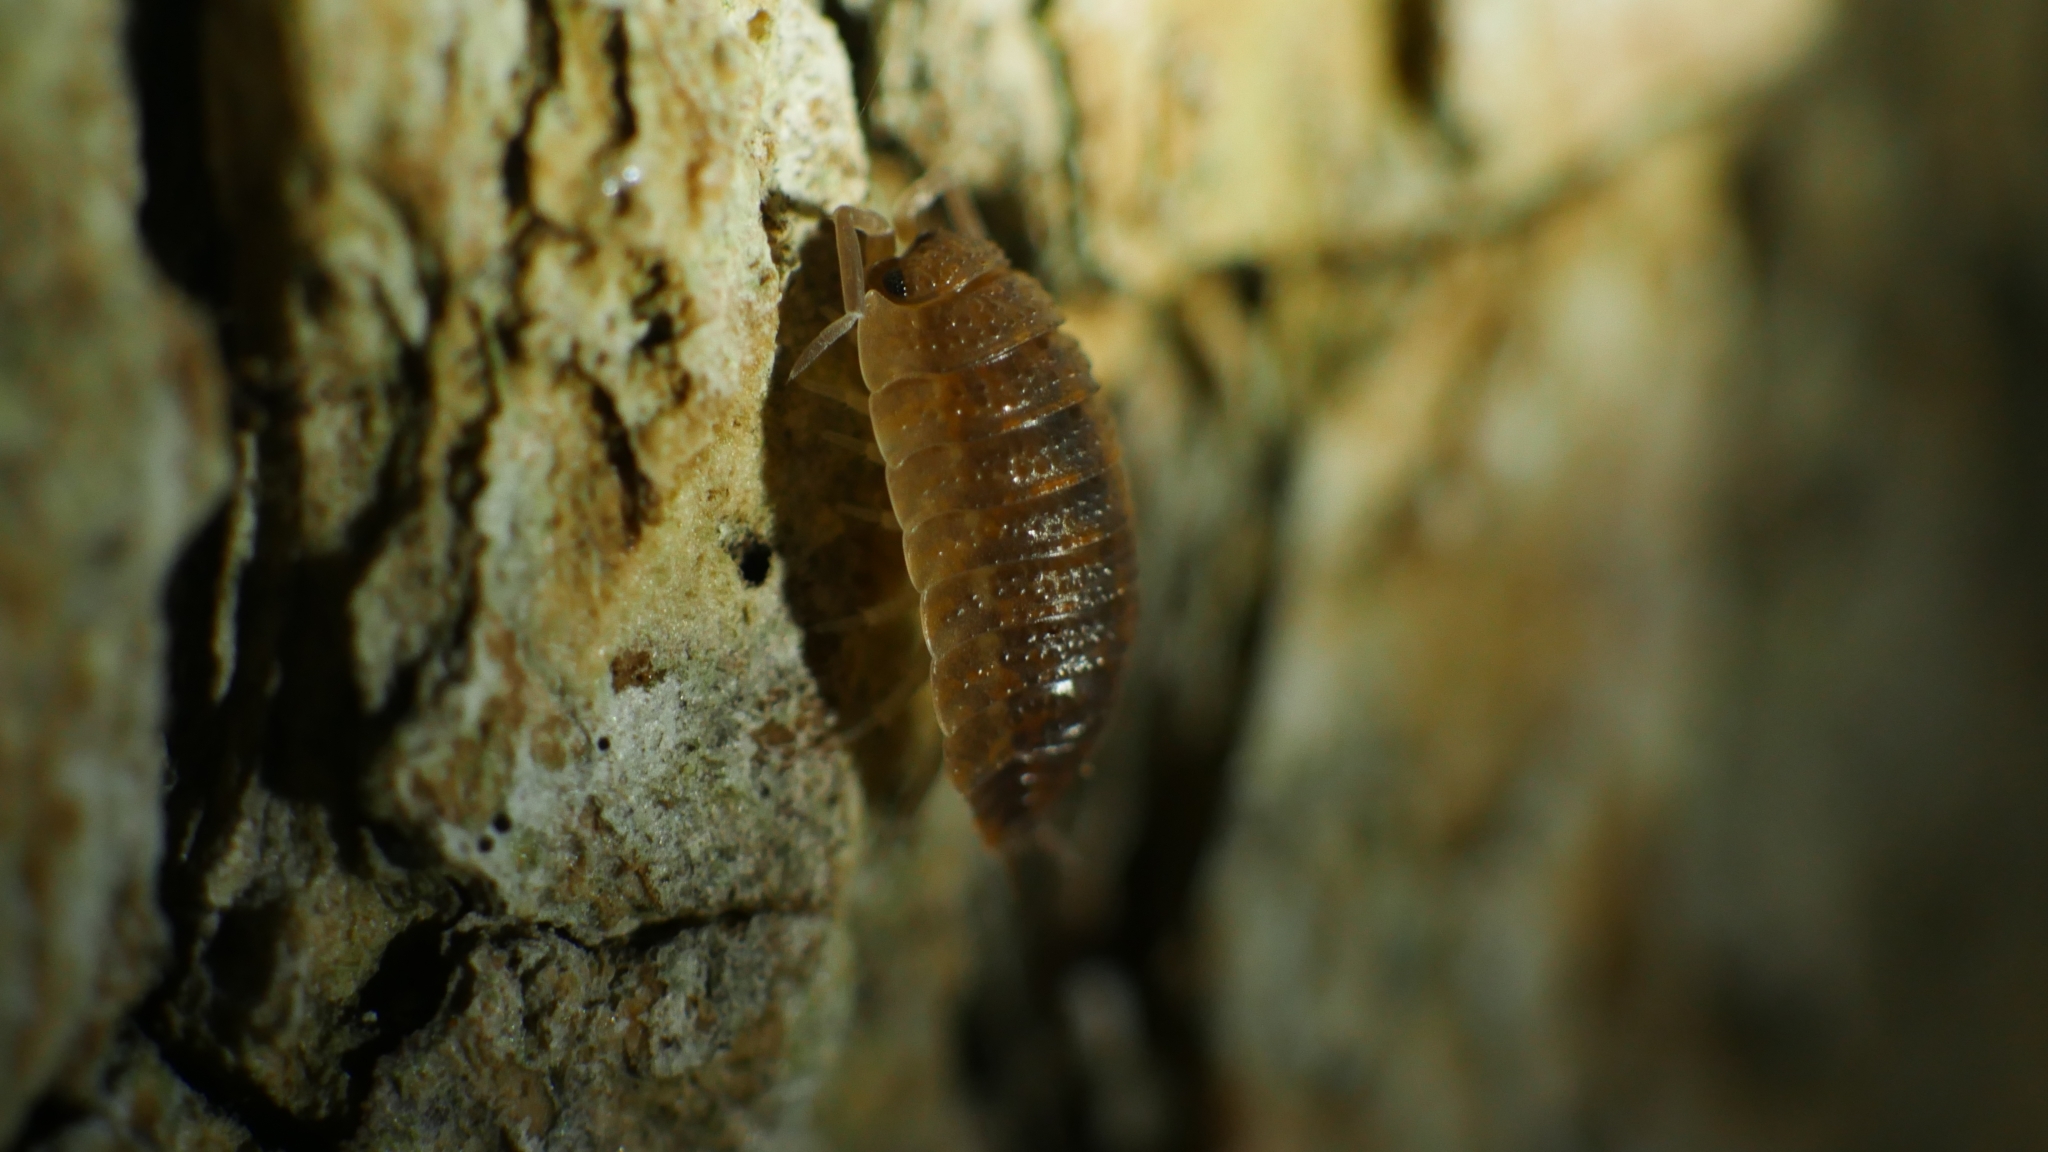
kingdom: Animalia
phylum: Arthropoda
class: Malacostraca
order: Isopoda
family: Porcellionidae
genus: Porcellio
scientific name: Porcellio scaber
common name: Common rough woodlouse
